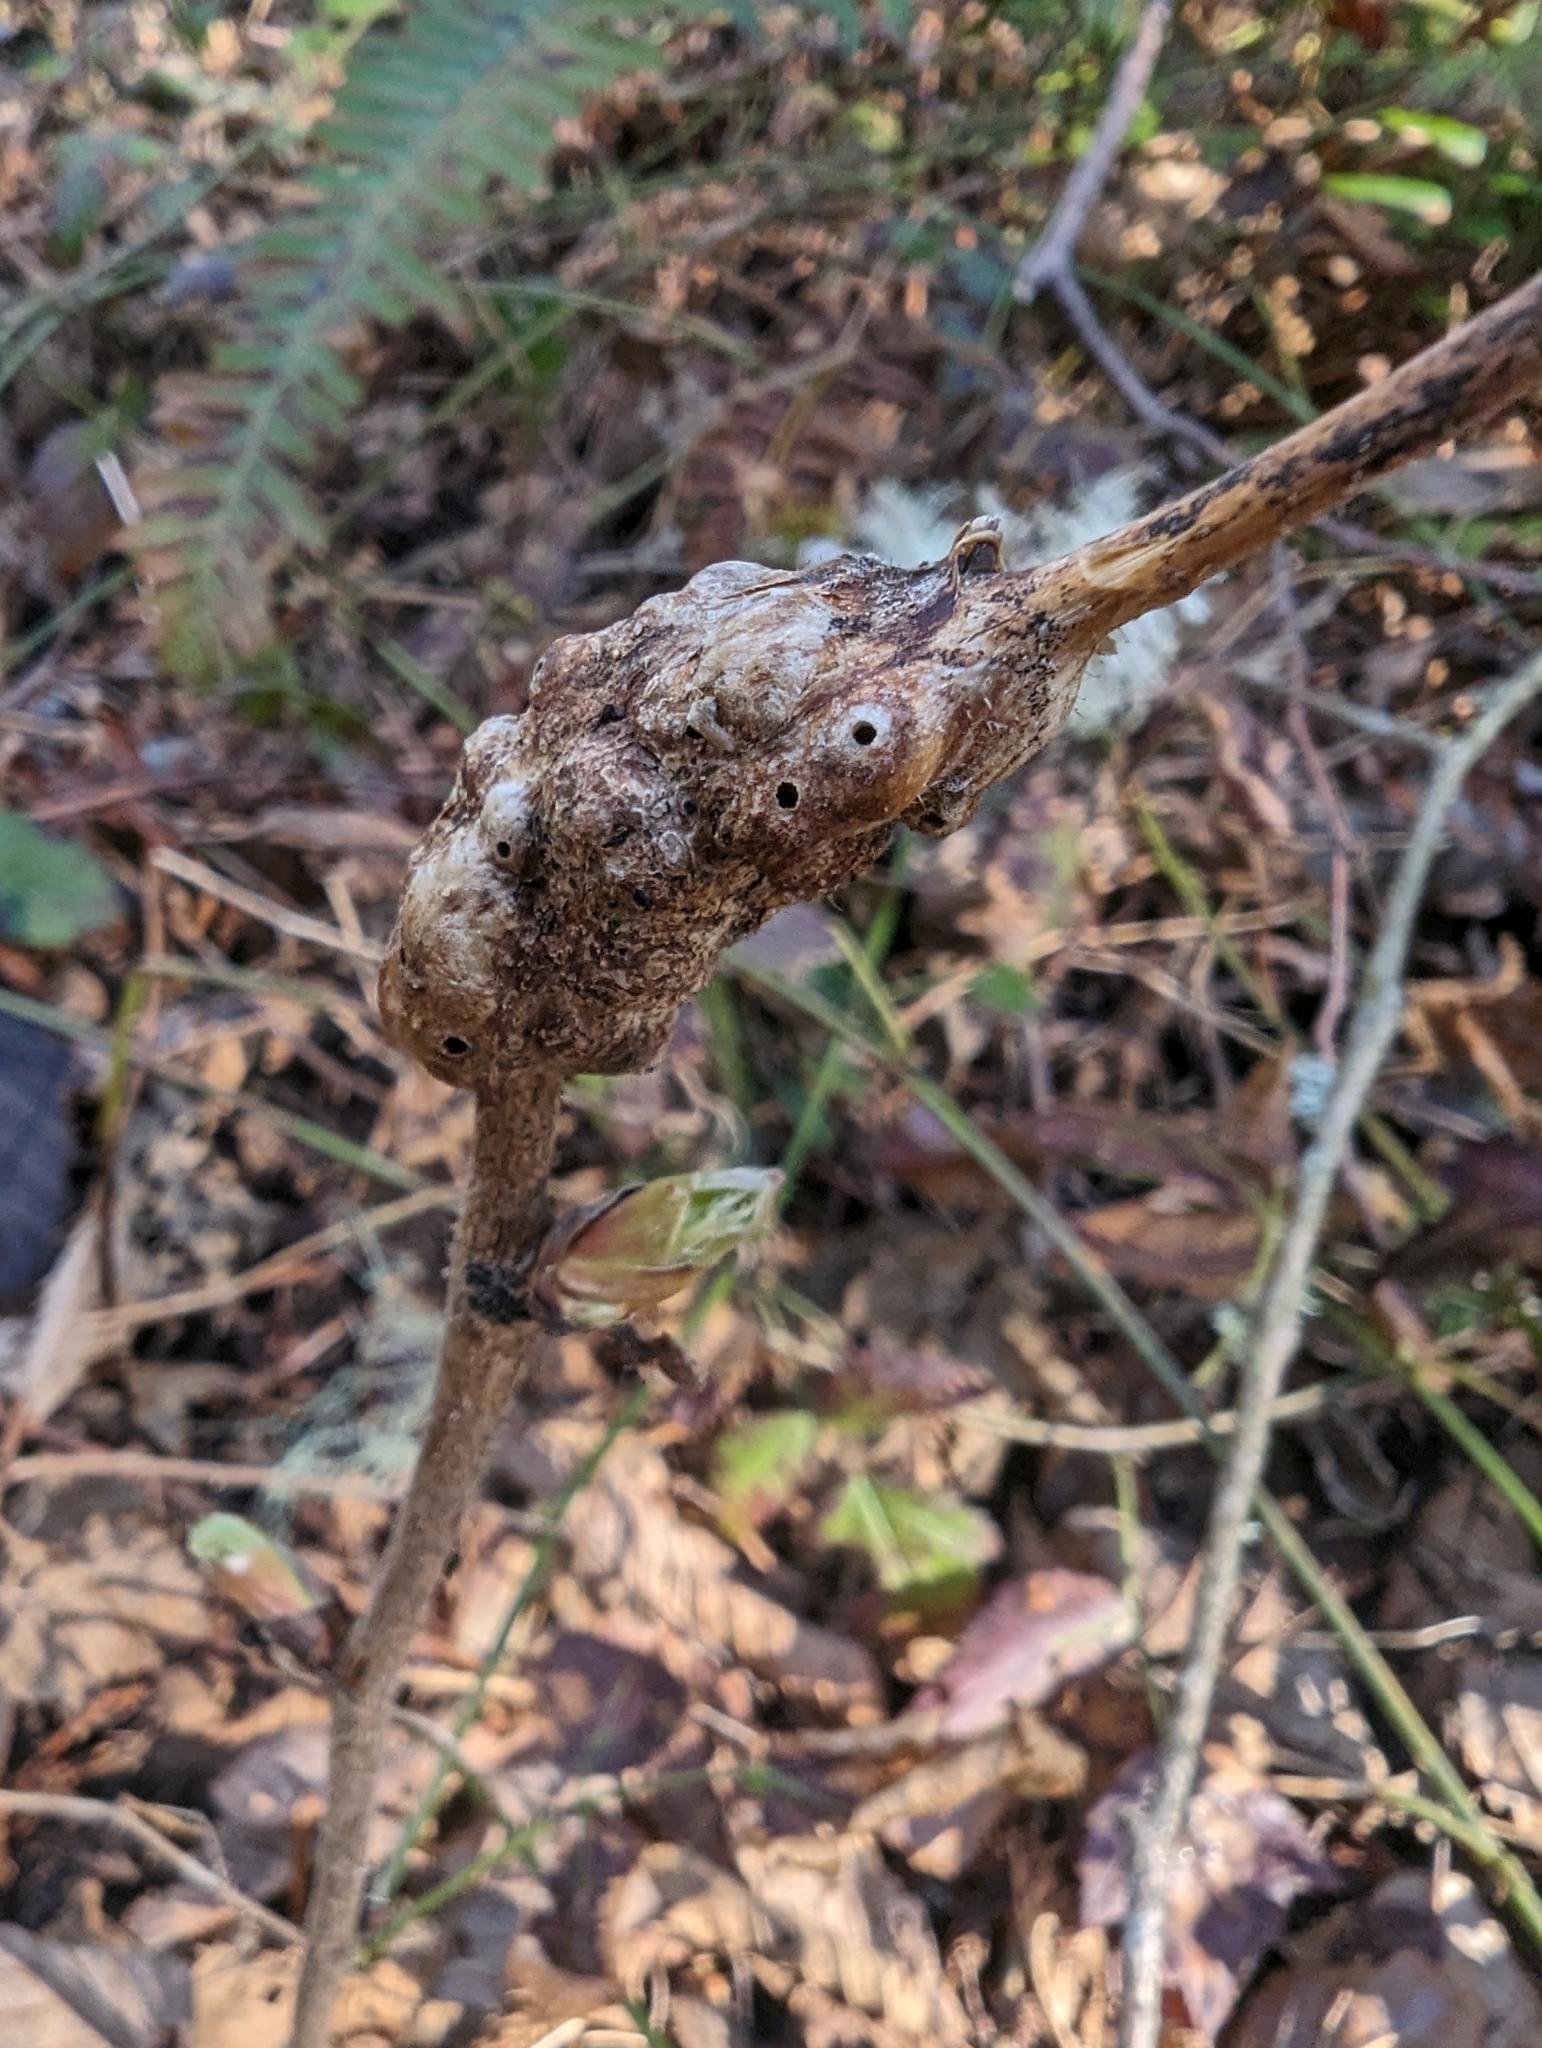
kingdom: Animalia
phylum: Arthropoda
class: Insecta
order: Hymenoptera
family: Cynipidae
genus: Diastrophus
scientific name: Diastrophus
